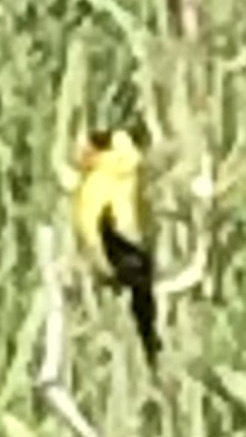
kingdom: Animalia
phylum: Chordata
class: Aves
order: Passeriformes
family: Fringillidae
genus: Spinus
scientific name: Spinus tristis
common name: American goldfinch
